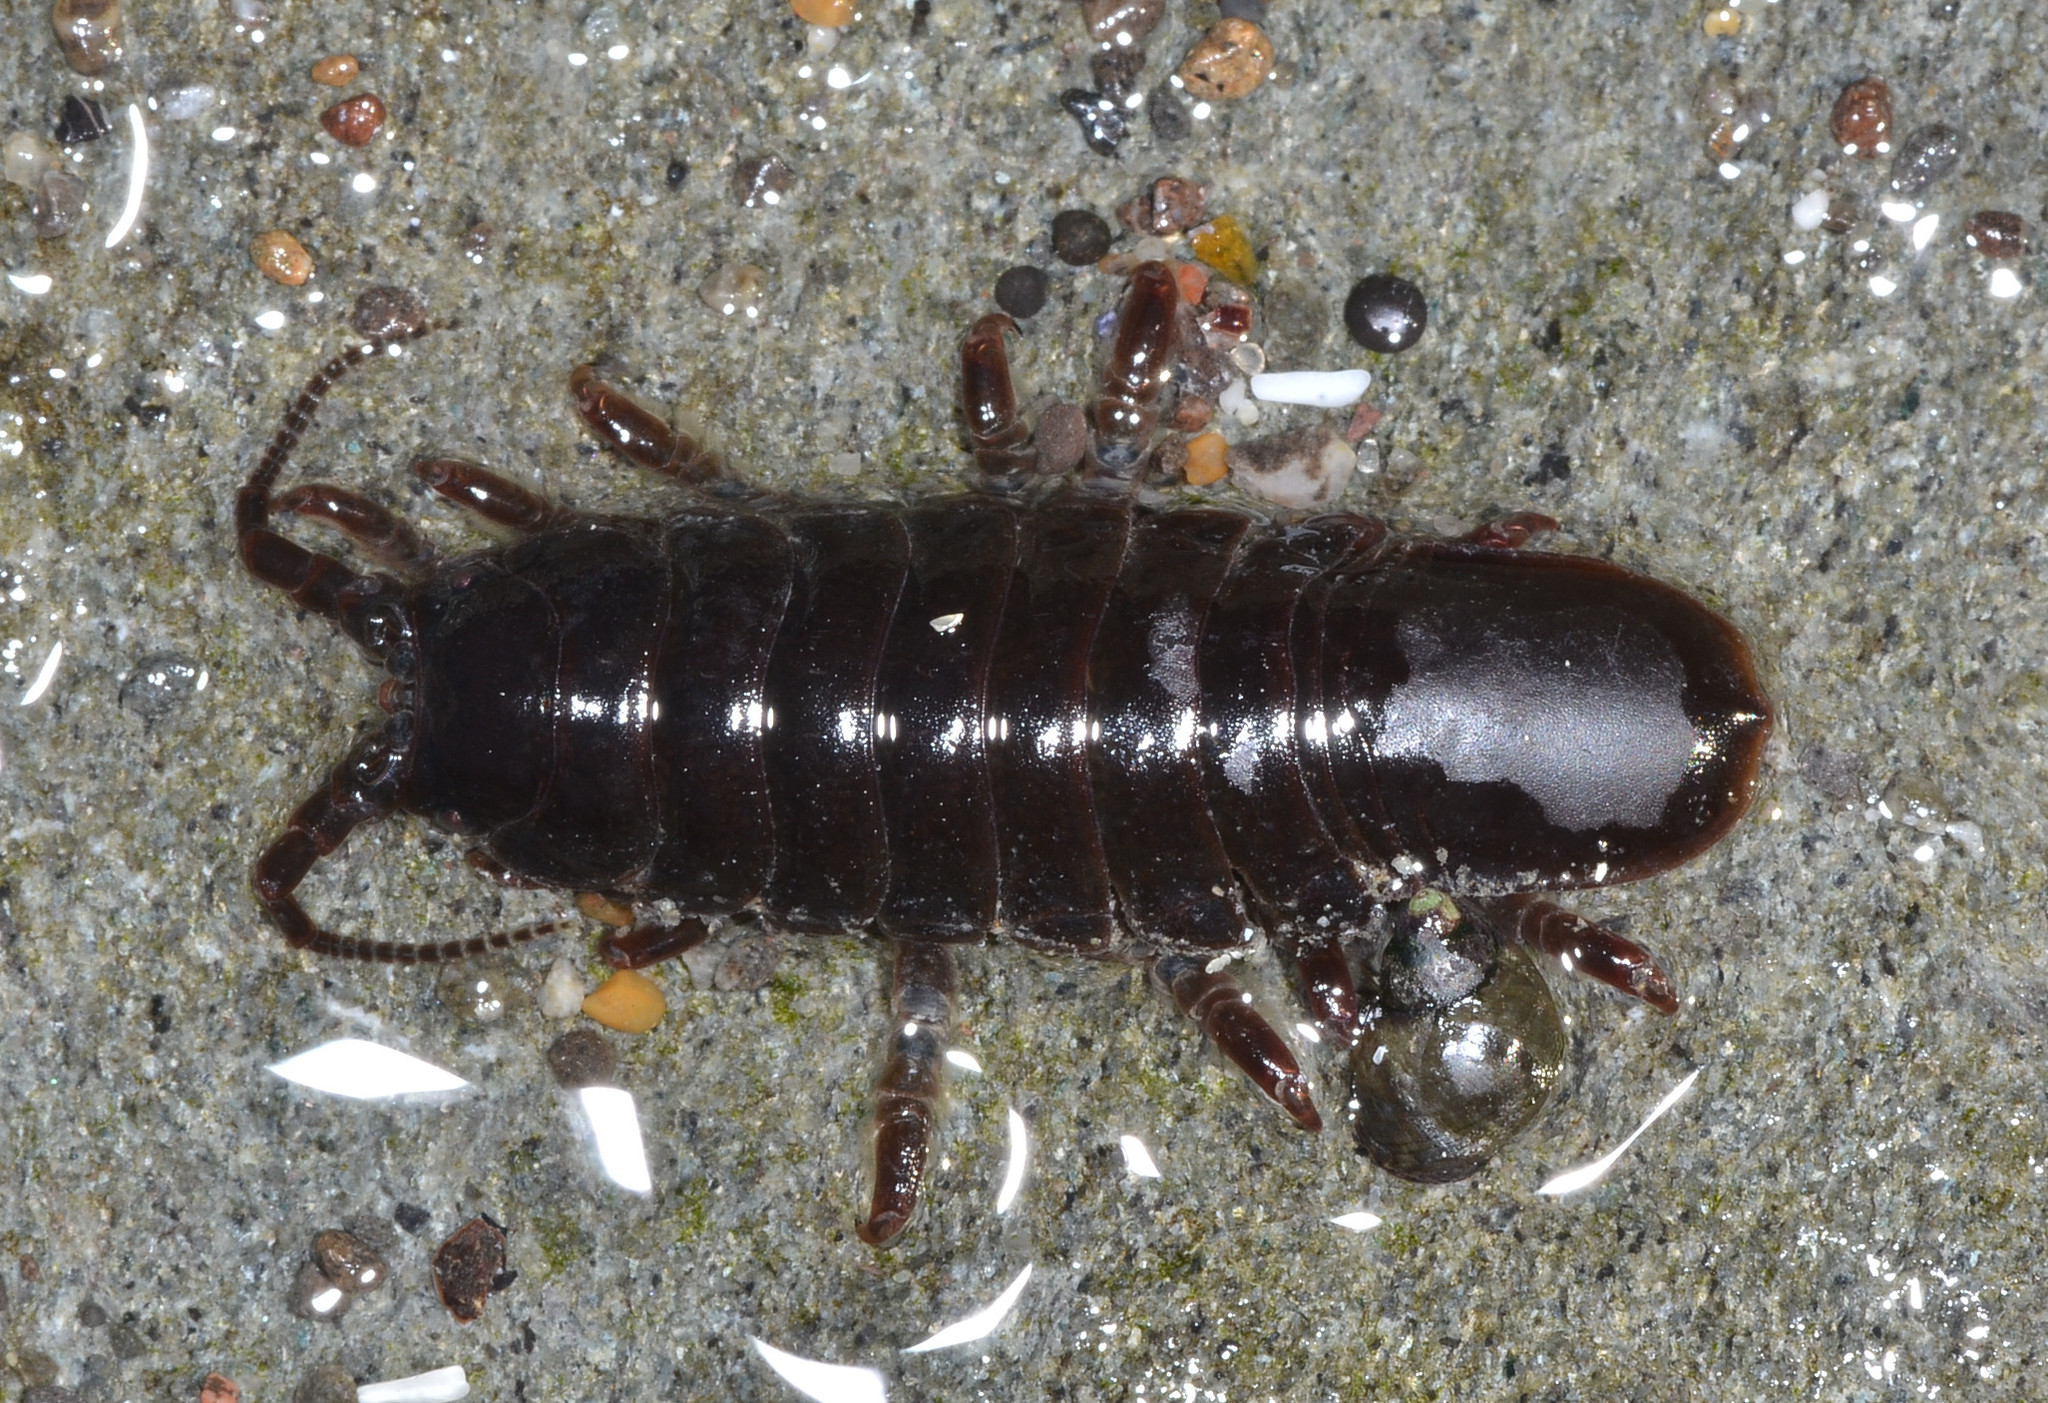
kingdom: Animalia
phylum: Arthropoda
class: Malacostraca
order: Isopoda
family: Idoteidae
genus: Pentidotea
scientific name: Pentidotea wosnesenskii
